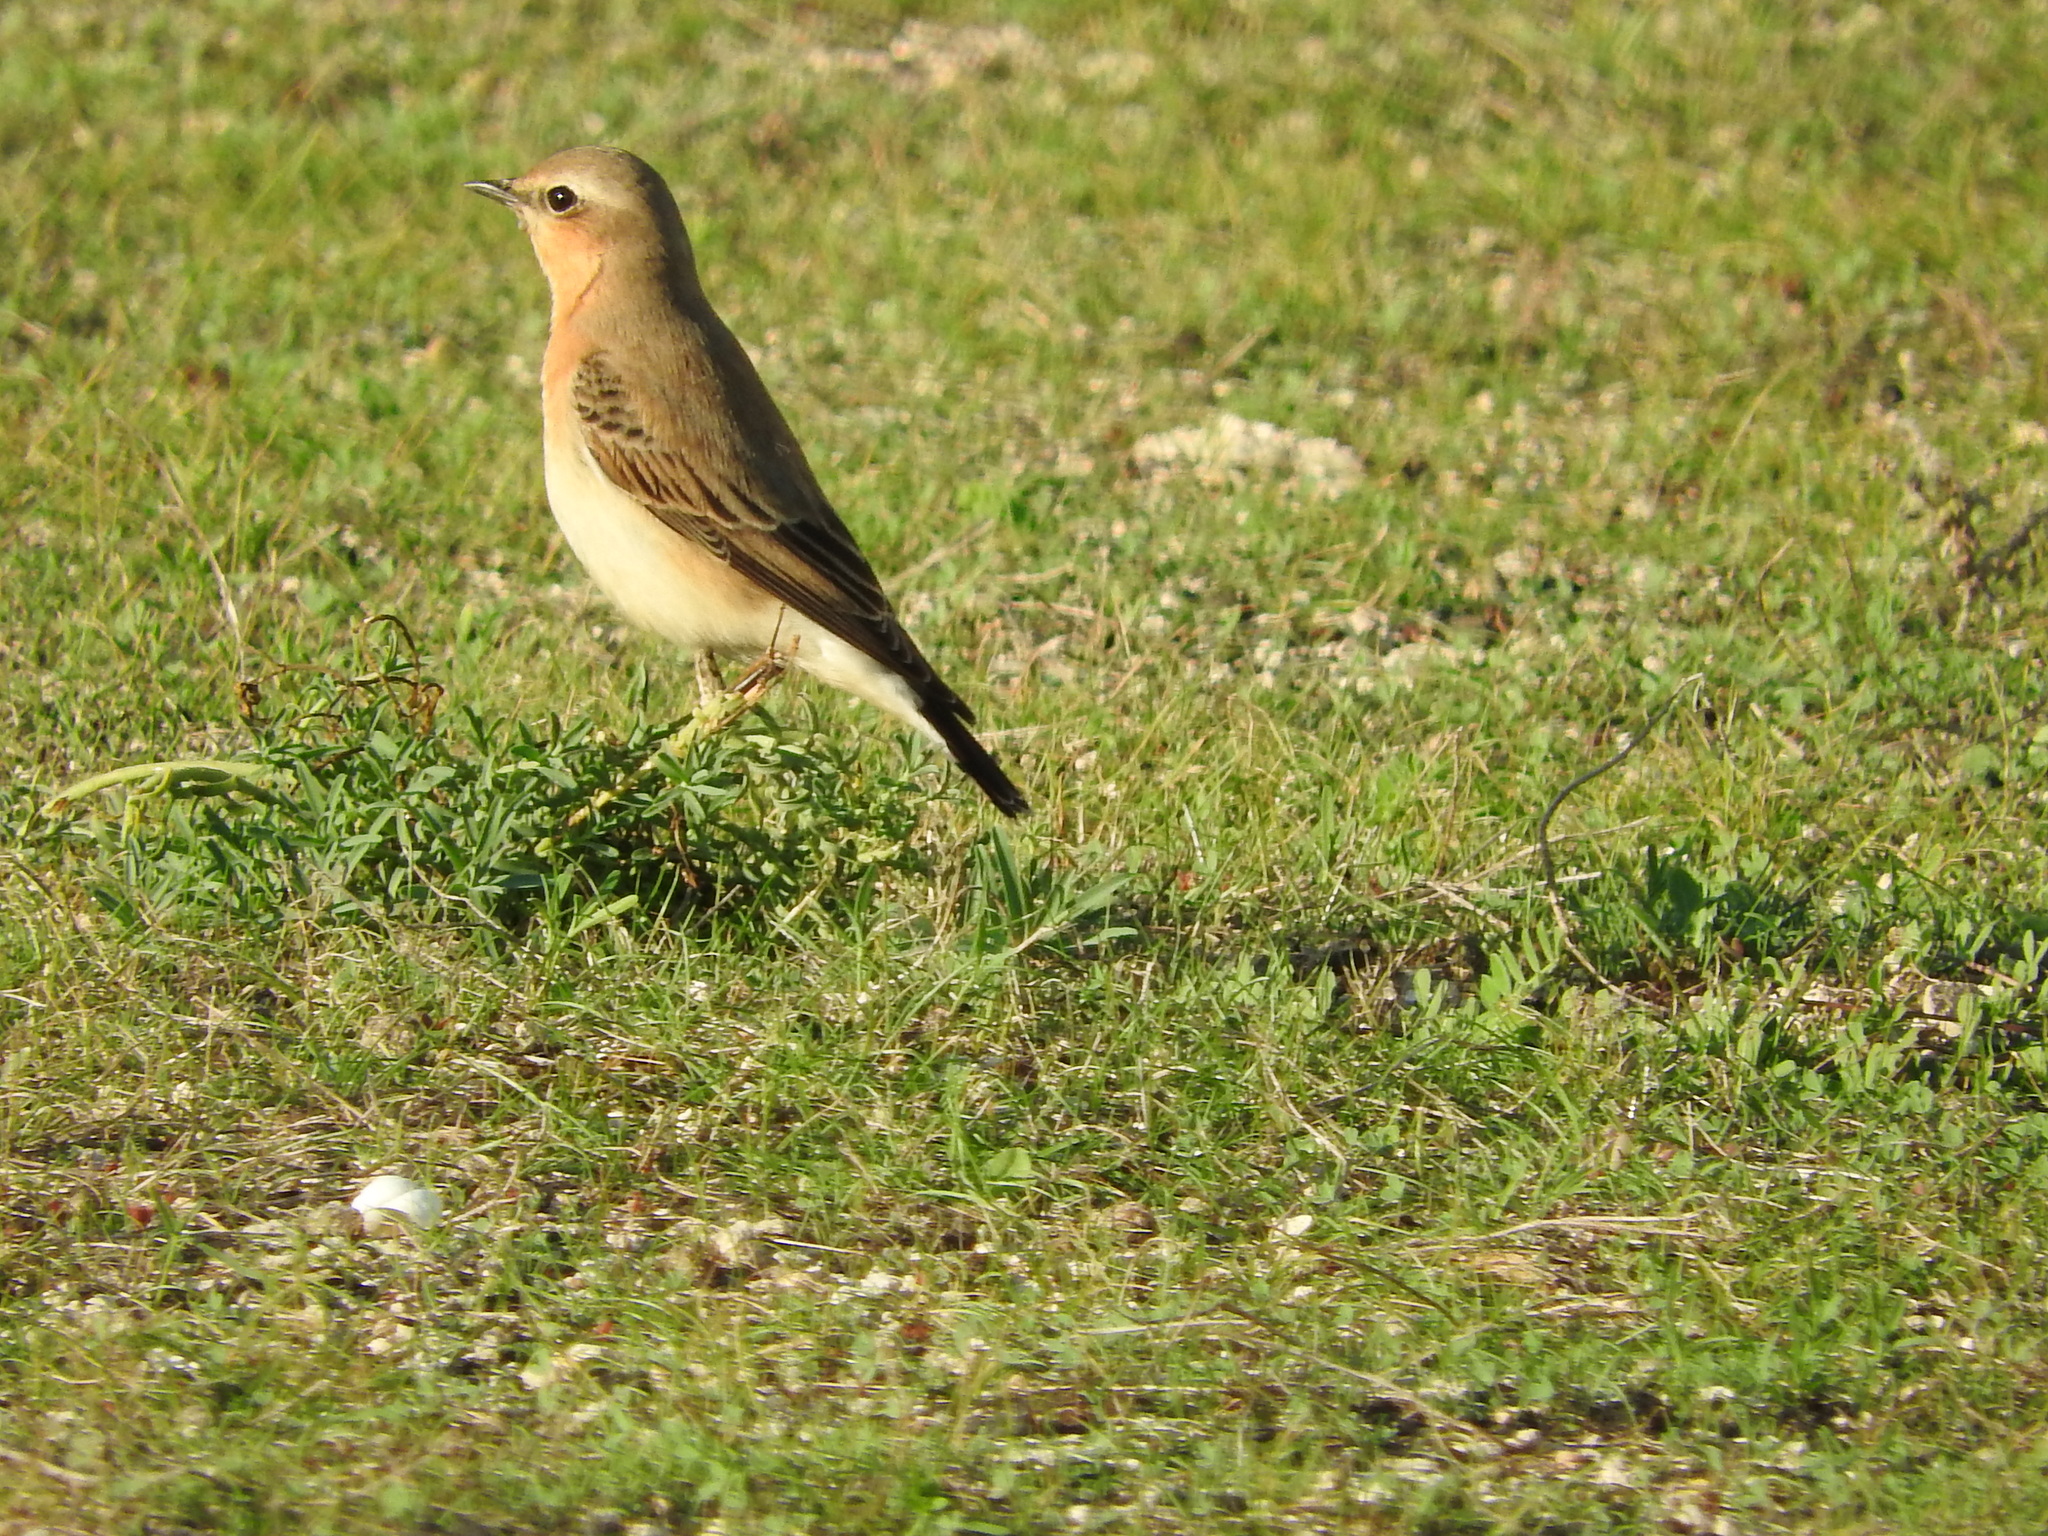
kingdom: Animalia
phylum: Chordata
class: Aves
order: Passeriformes
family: Muscicapidae
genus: Oenanthe
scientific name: Oenanthe oenanthe
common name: Northern wheatear
